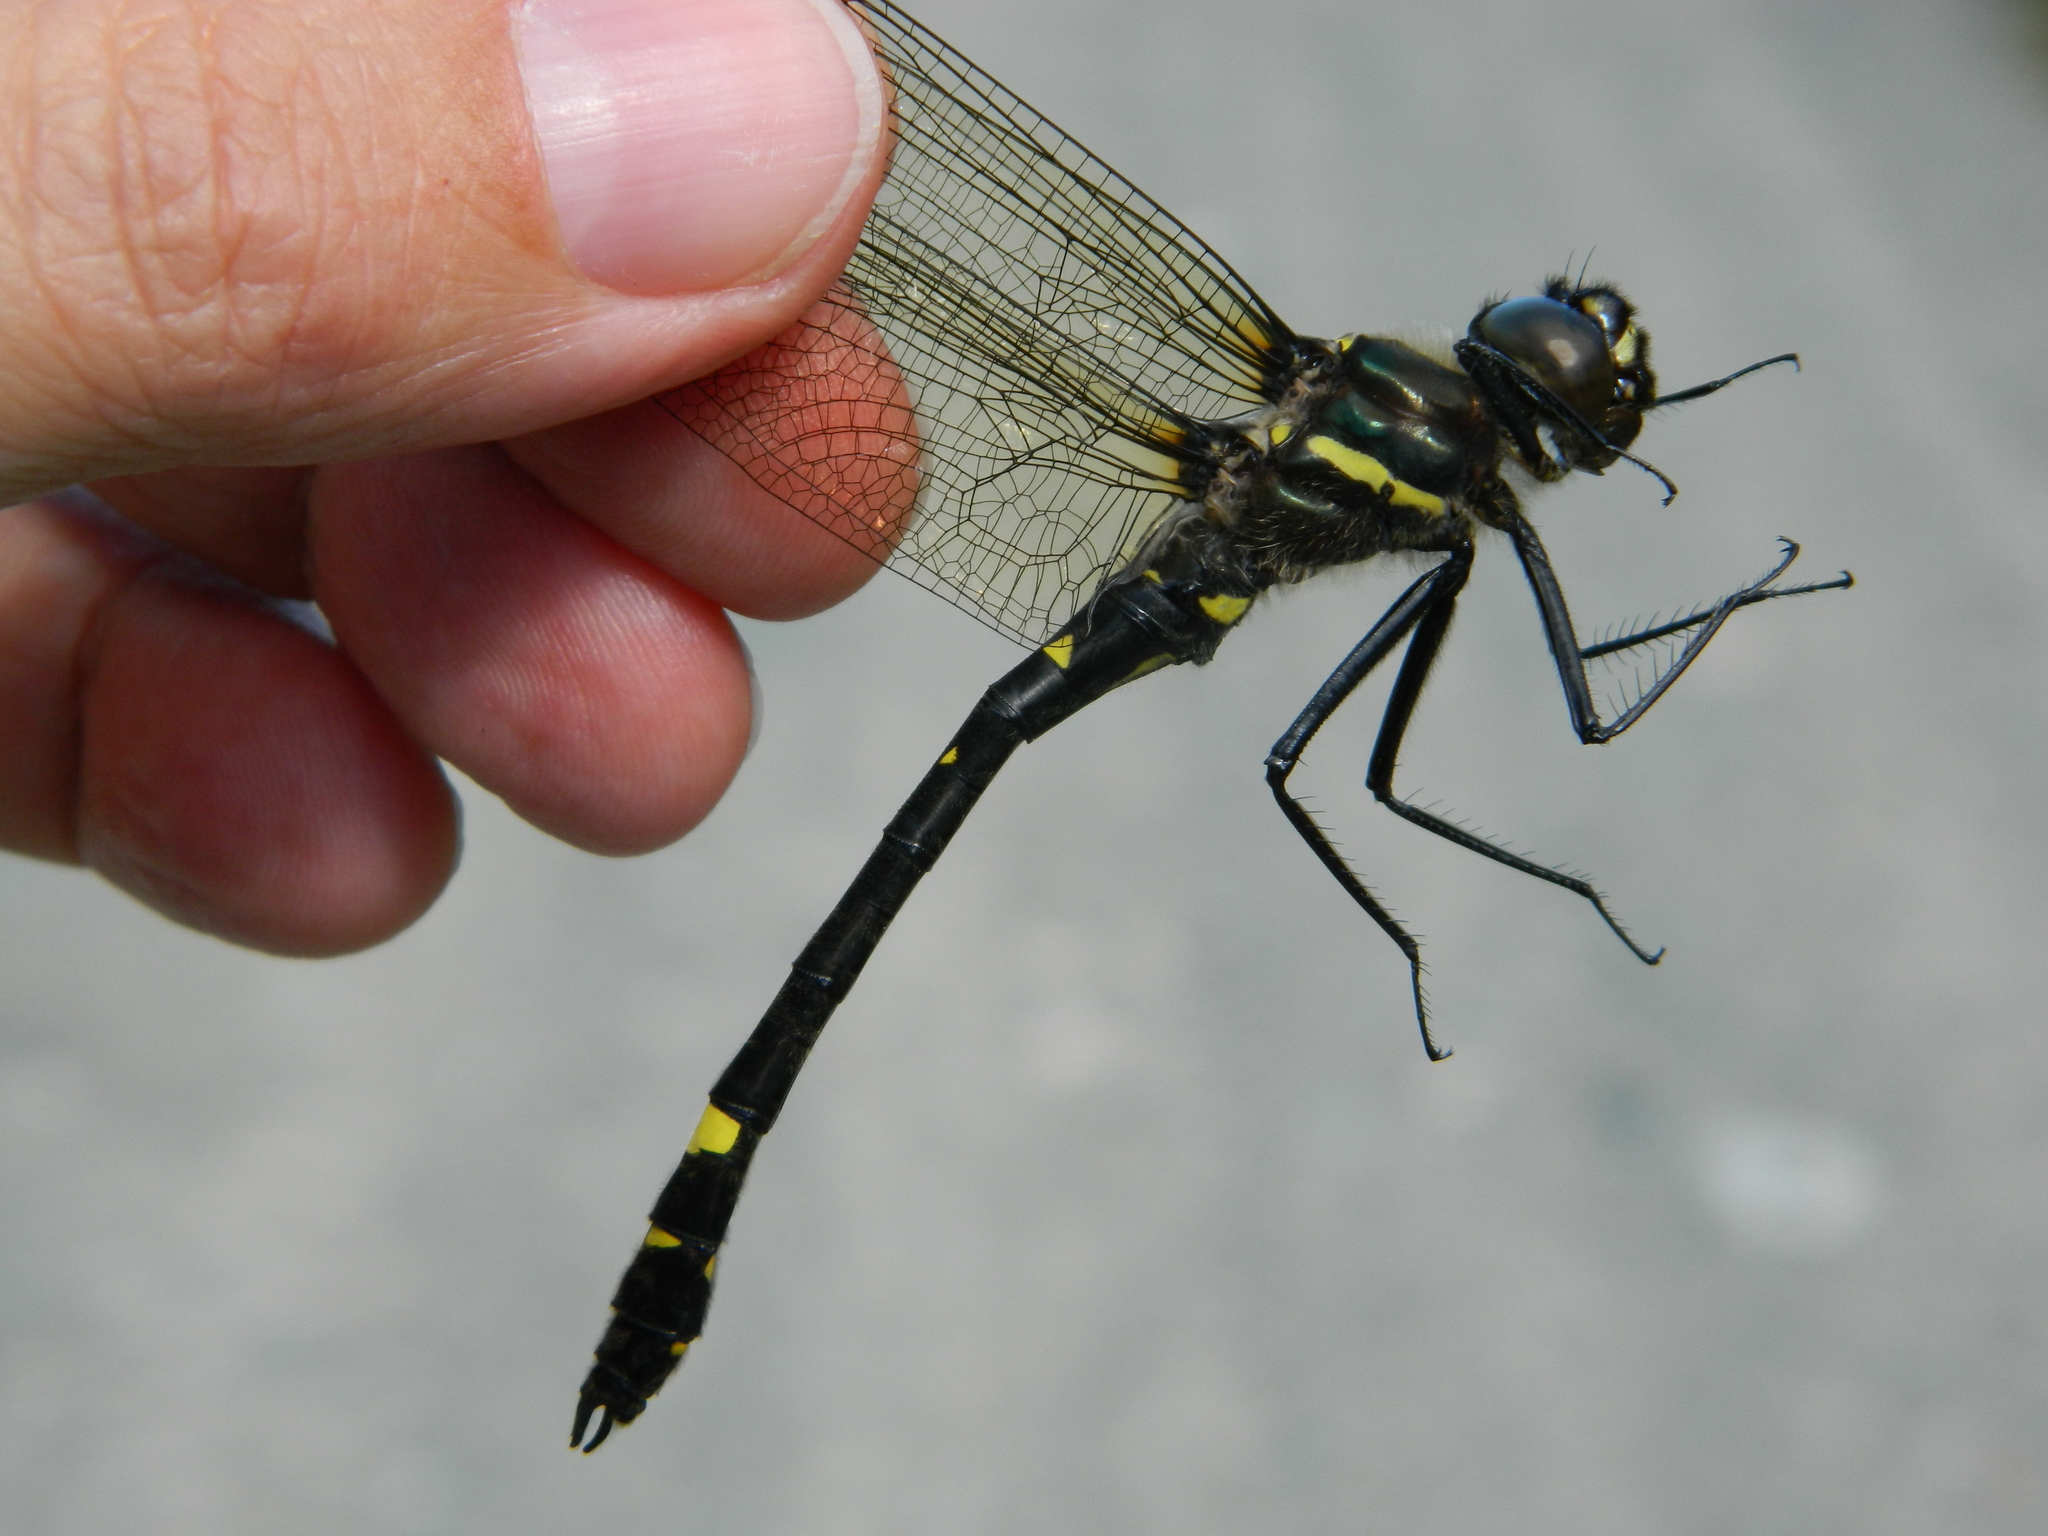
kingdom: Animalia
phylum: Arthropoda
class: Insecta
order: Odonata
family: Macromiidae
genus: Macromia
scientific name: Macromia illinoiensis
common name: Swift river cruiser
